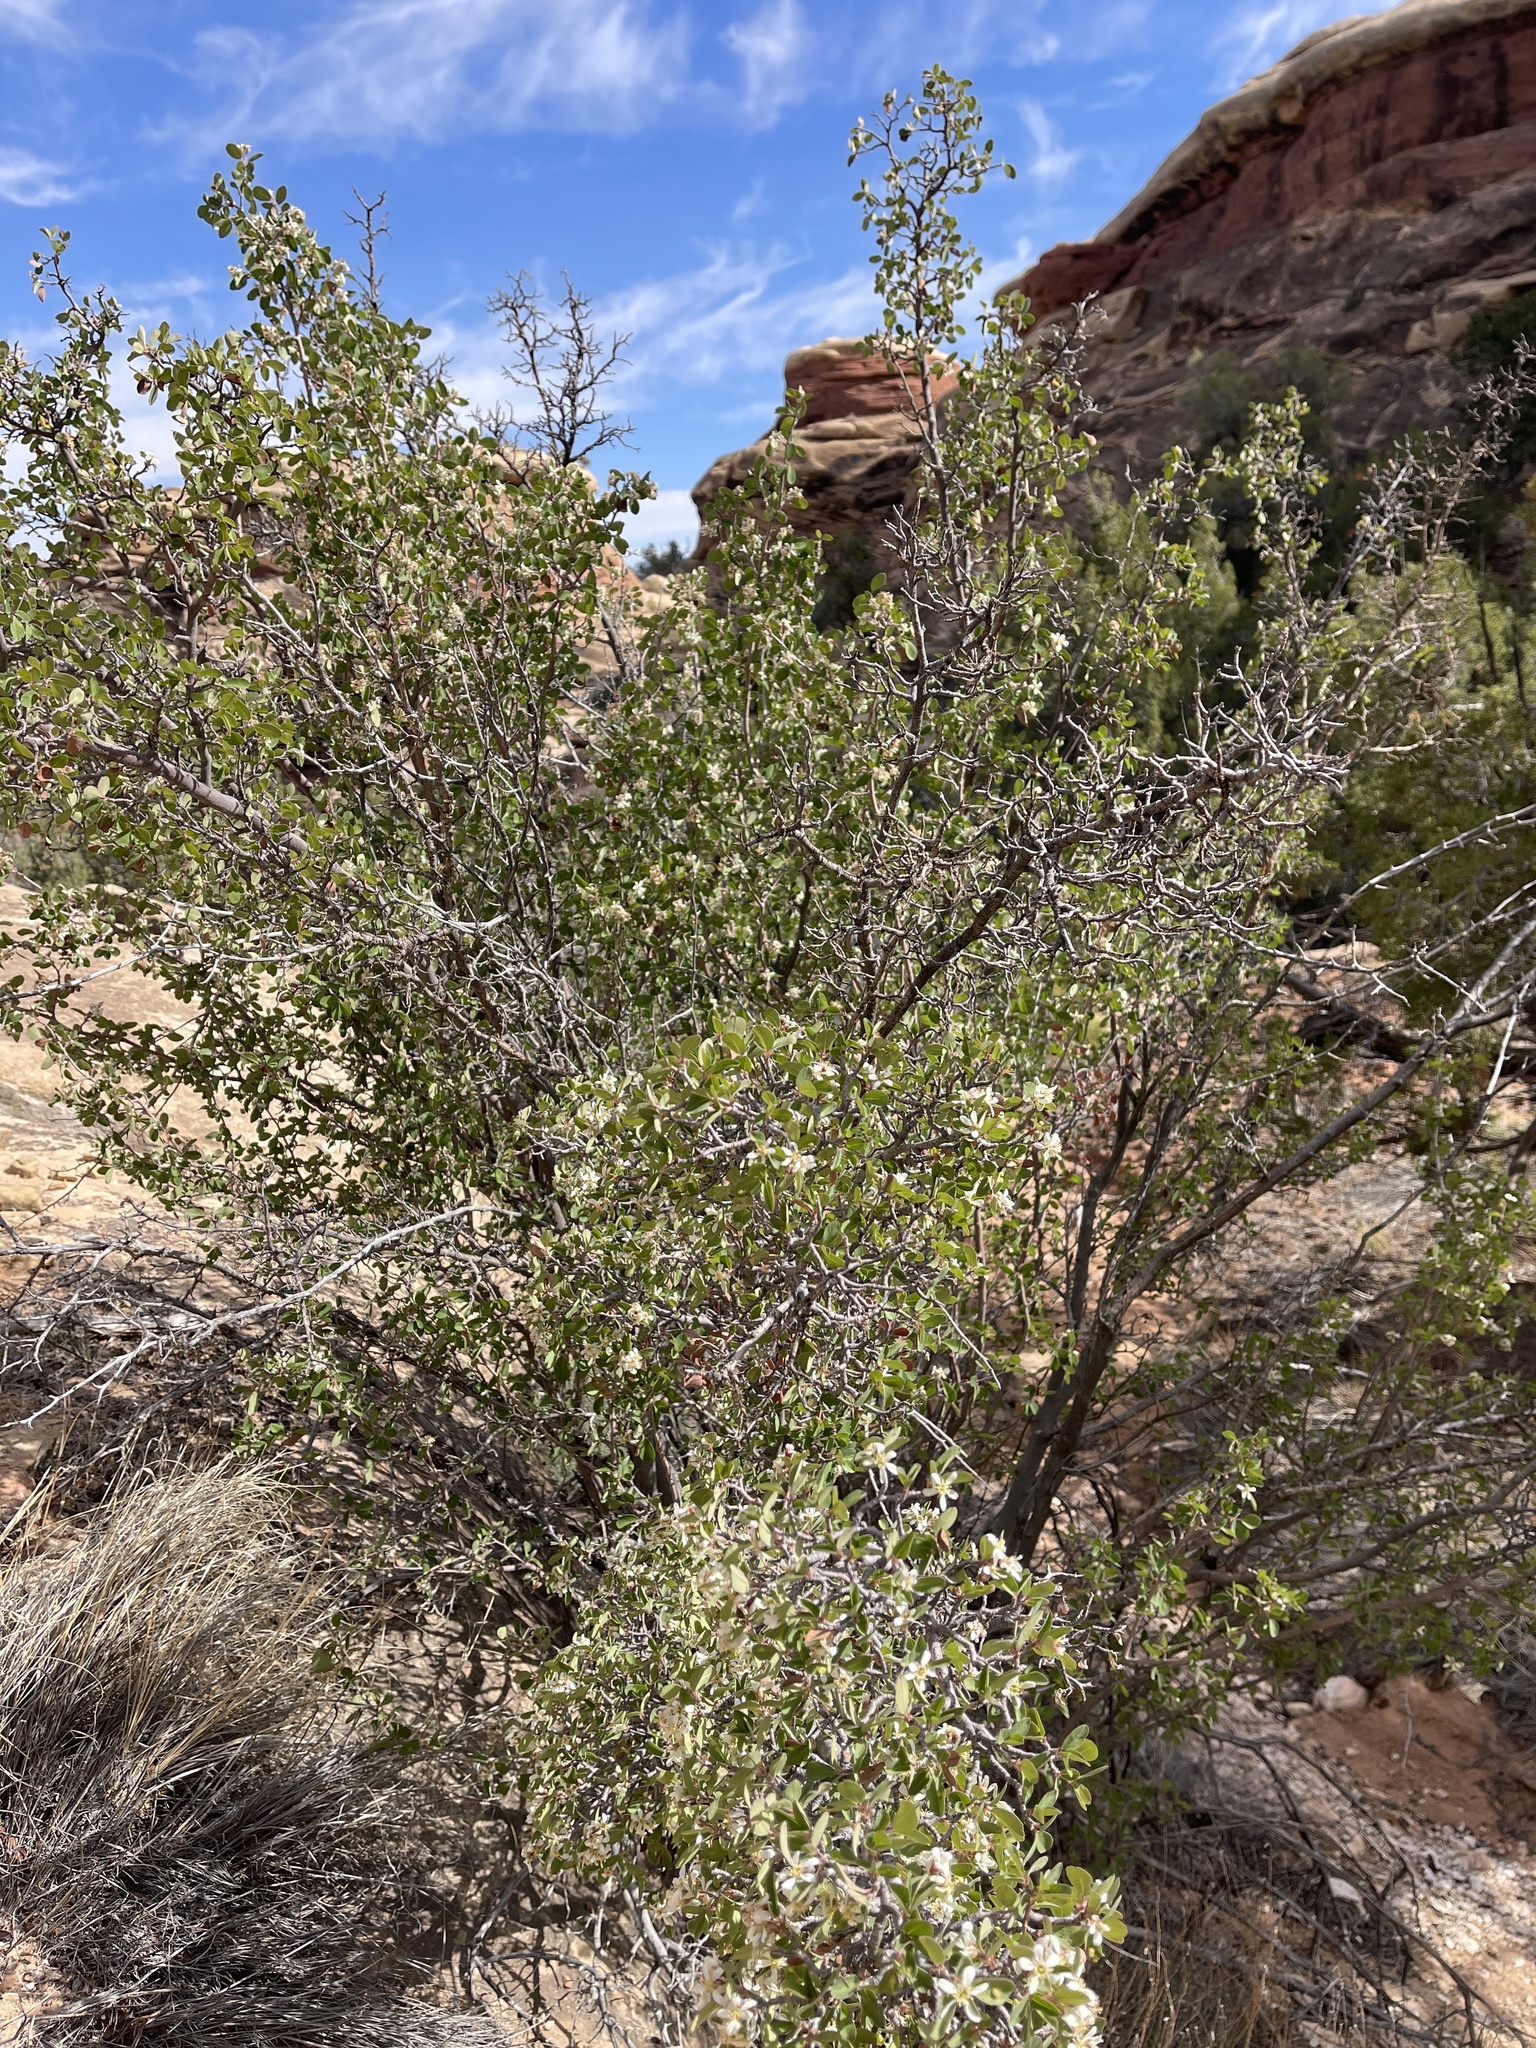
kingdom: Plantae
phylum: Tracheophyta
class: Magnoliopsida
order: Rosales
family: Rosaceae
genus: Amelanchier
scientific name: Amelanchier utahensis
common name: Utah serviceberry
